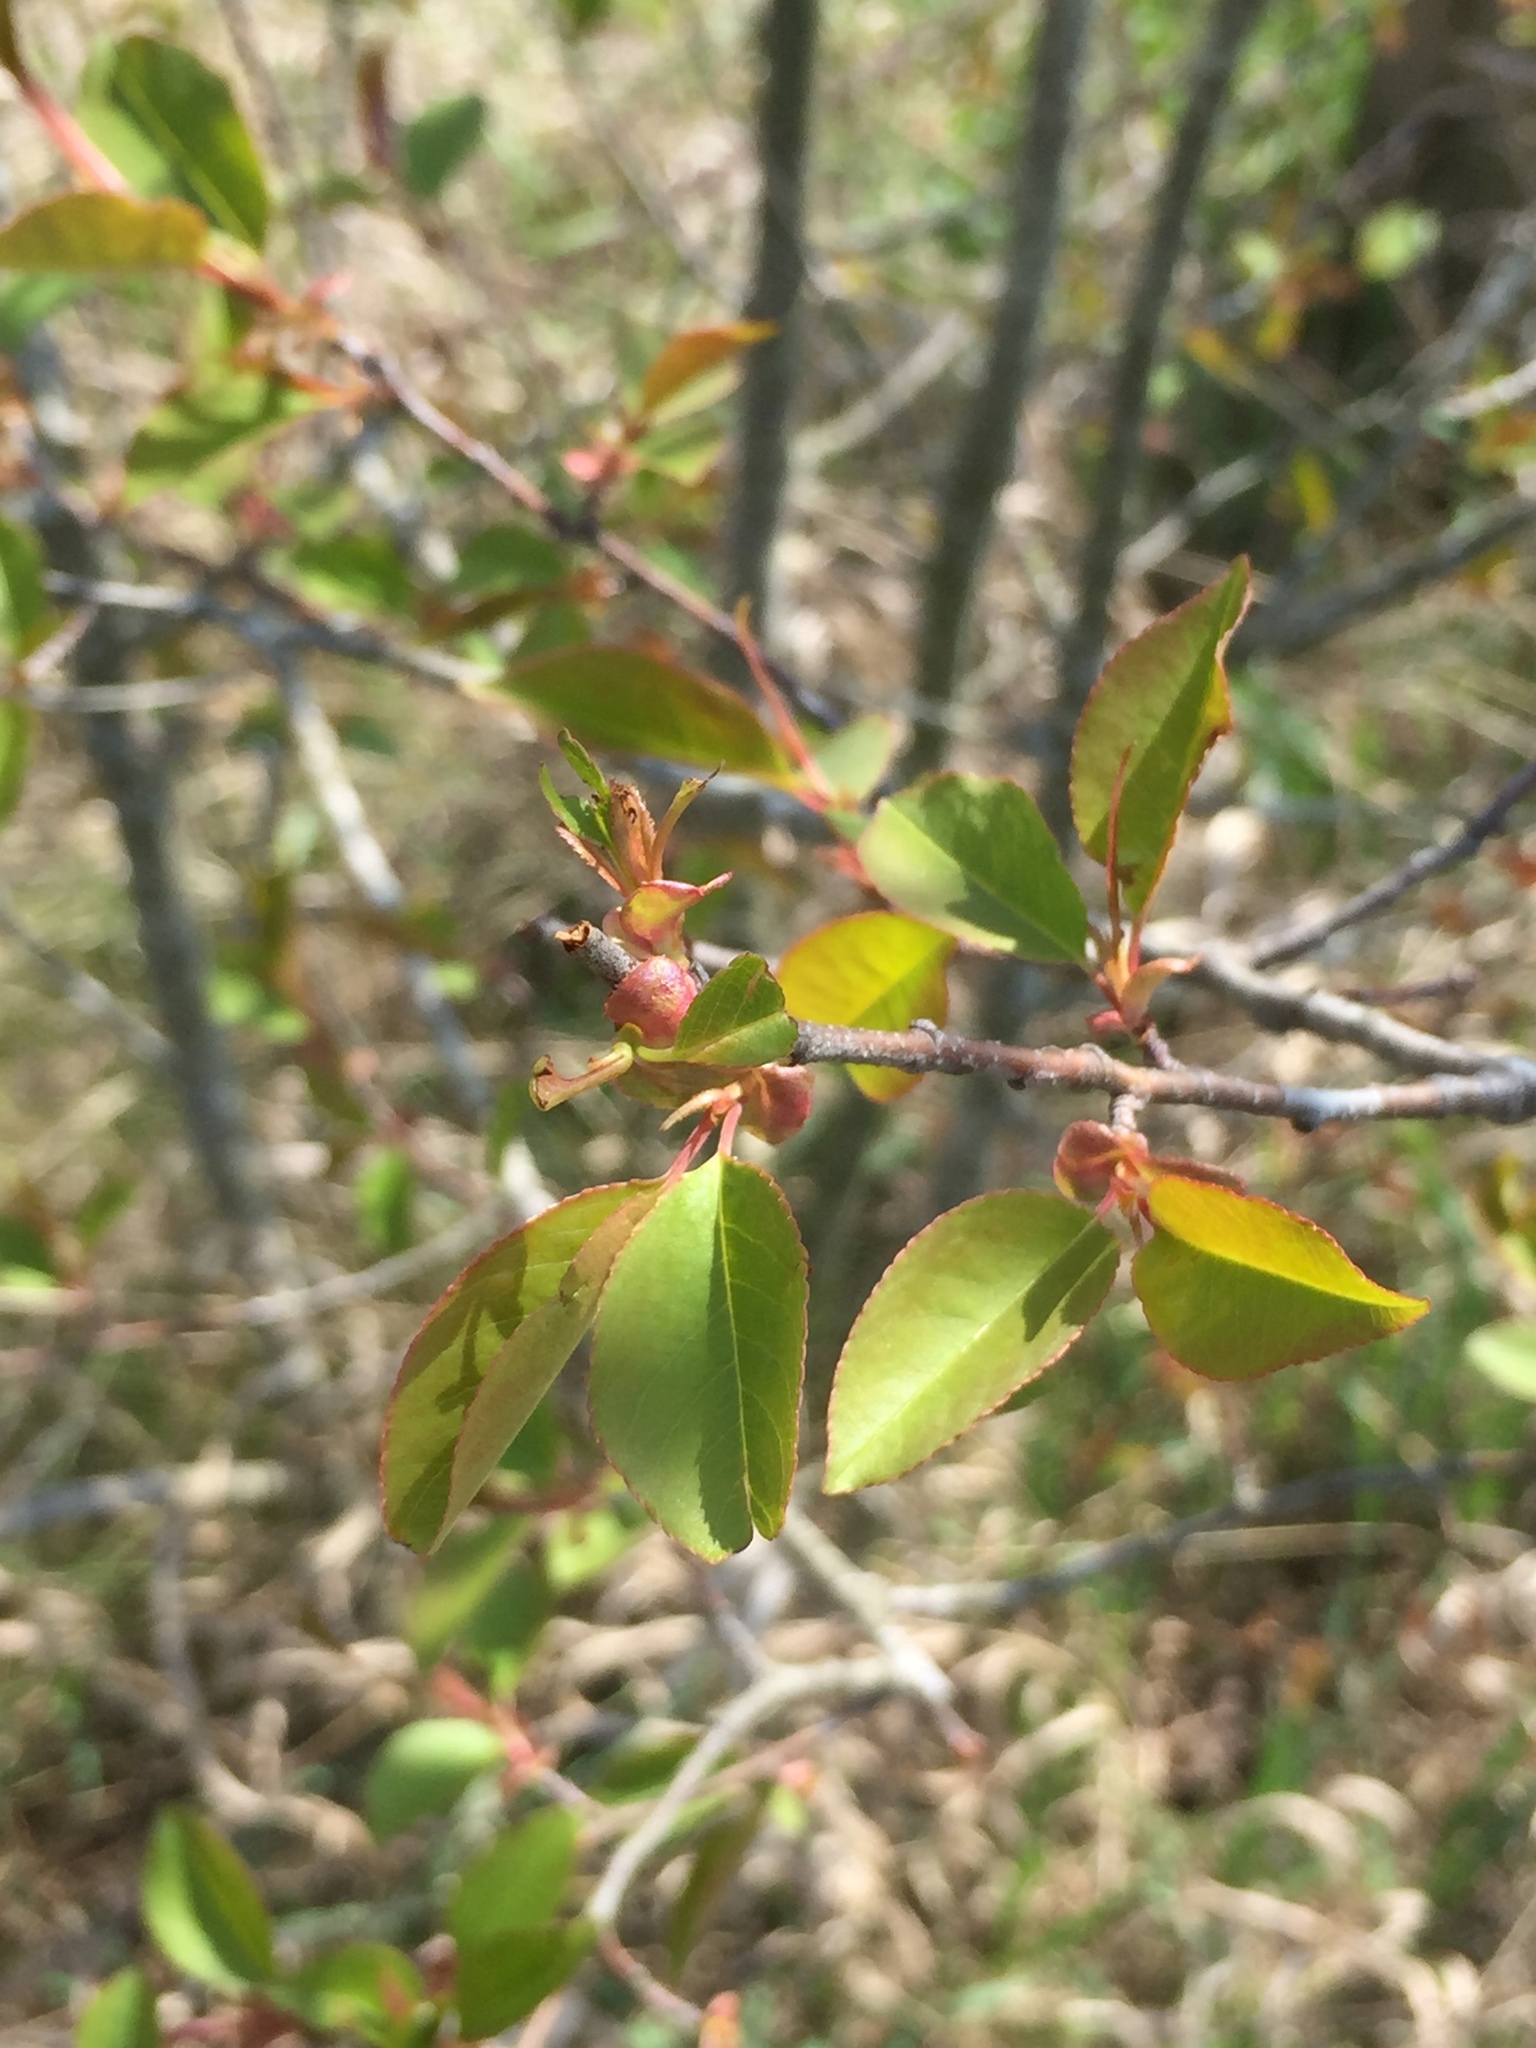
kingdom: Plantae
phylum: Tracheophyta
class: Magnoliopsida
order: Rosales
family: Rosaceae
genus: Pyrus
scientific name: Pyrus calleryana
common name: Callery pear
